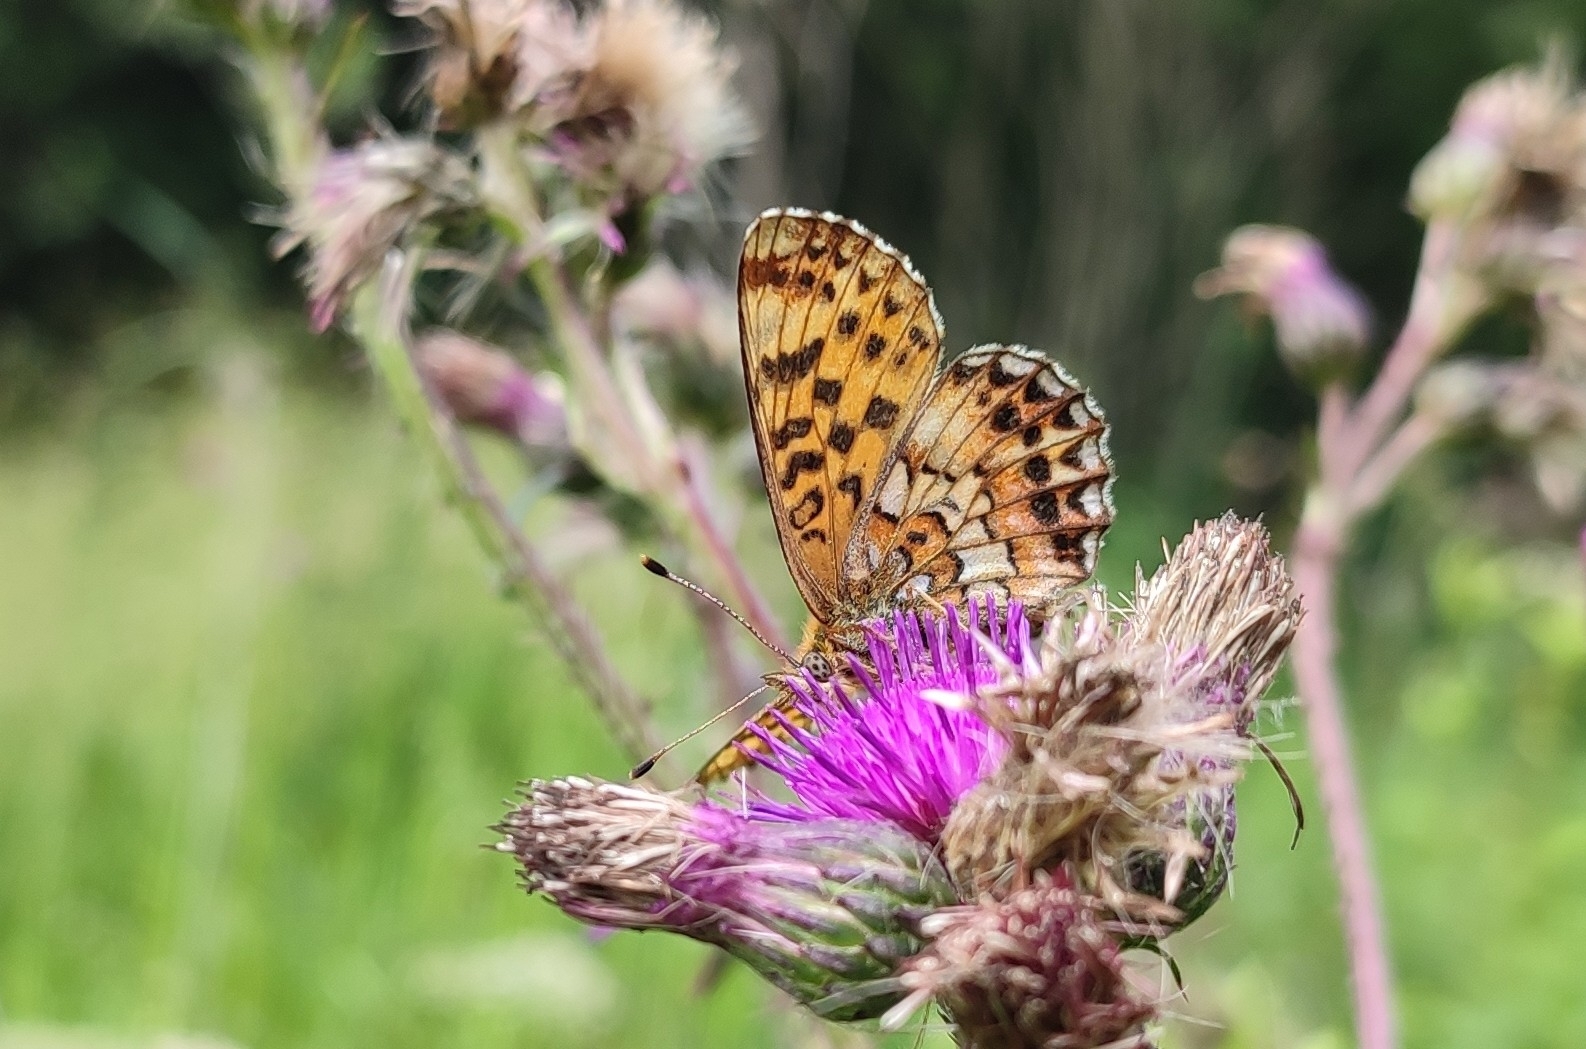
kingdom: Animalia
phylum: Arthropoda
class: Insecta
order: Lepidoptera
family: Nymphalidae
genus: Clossiana
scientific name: Clossiana angarensis
